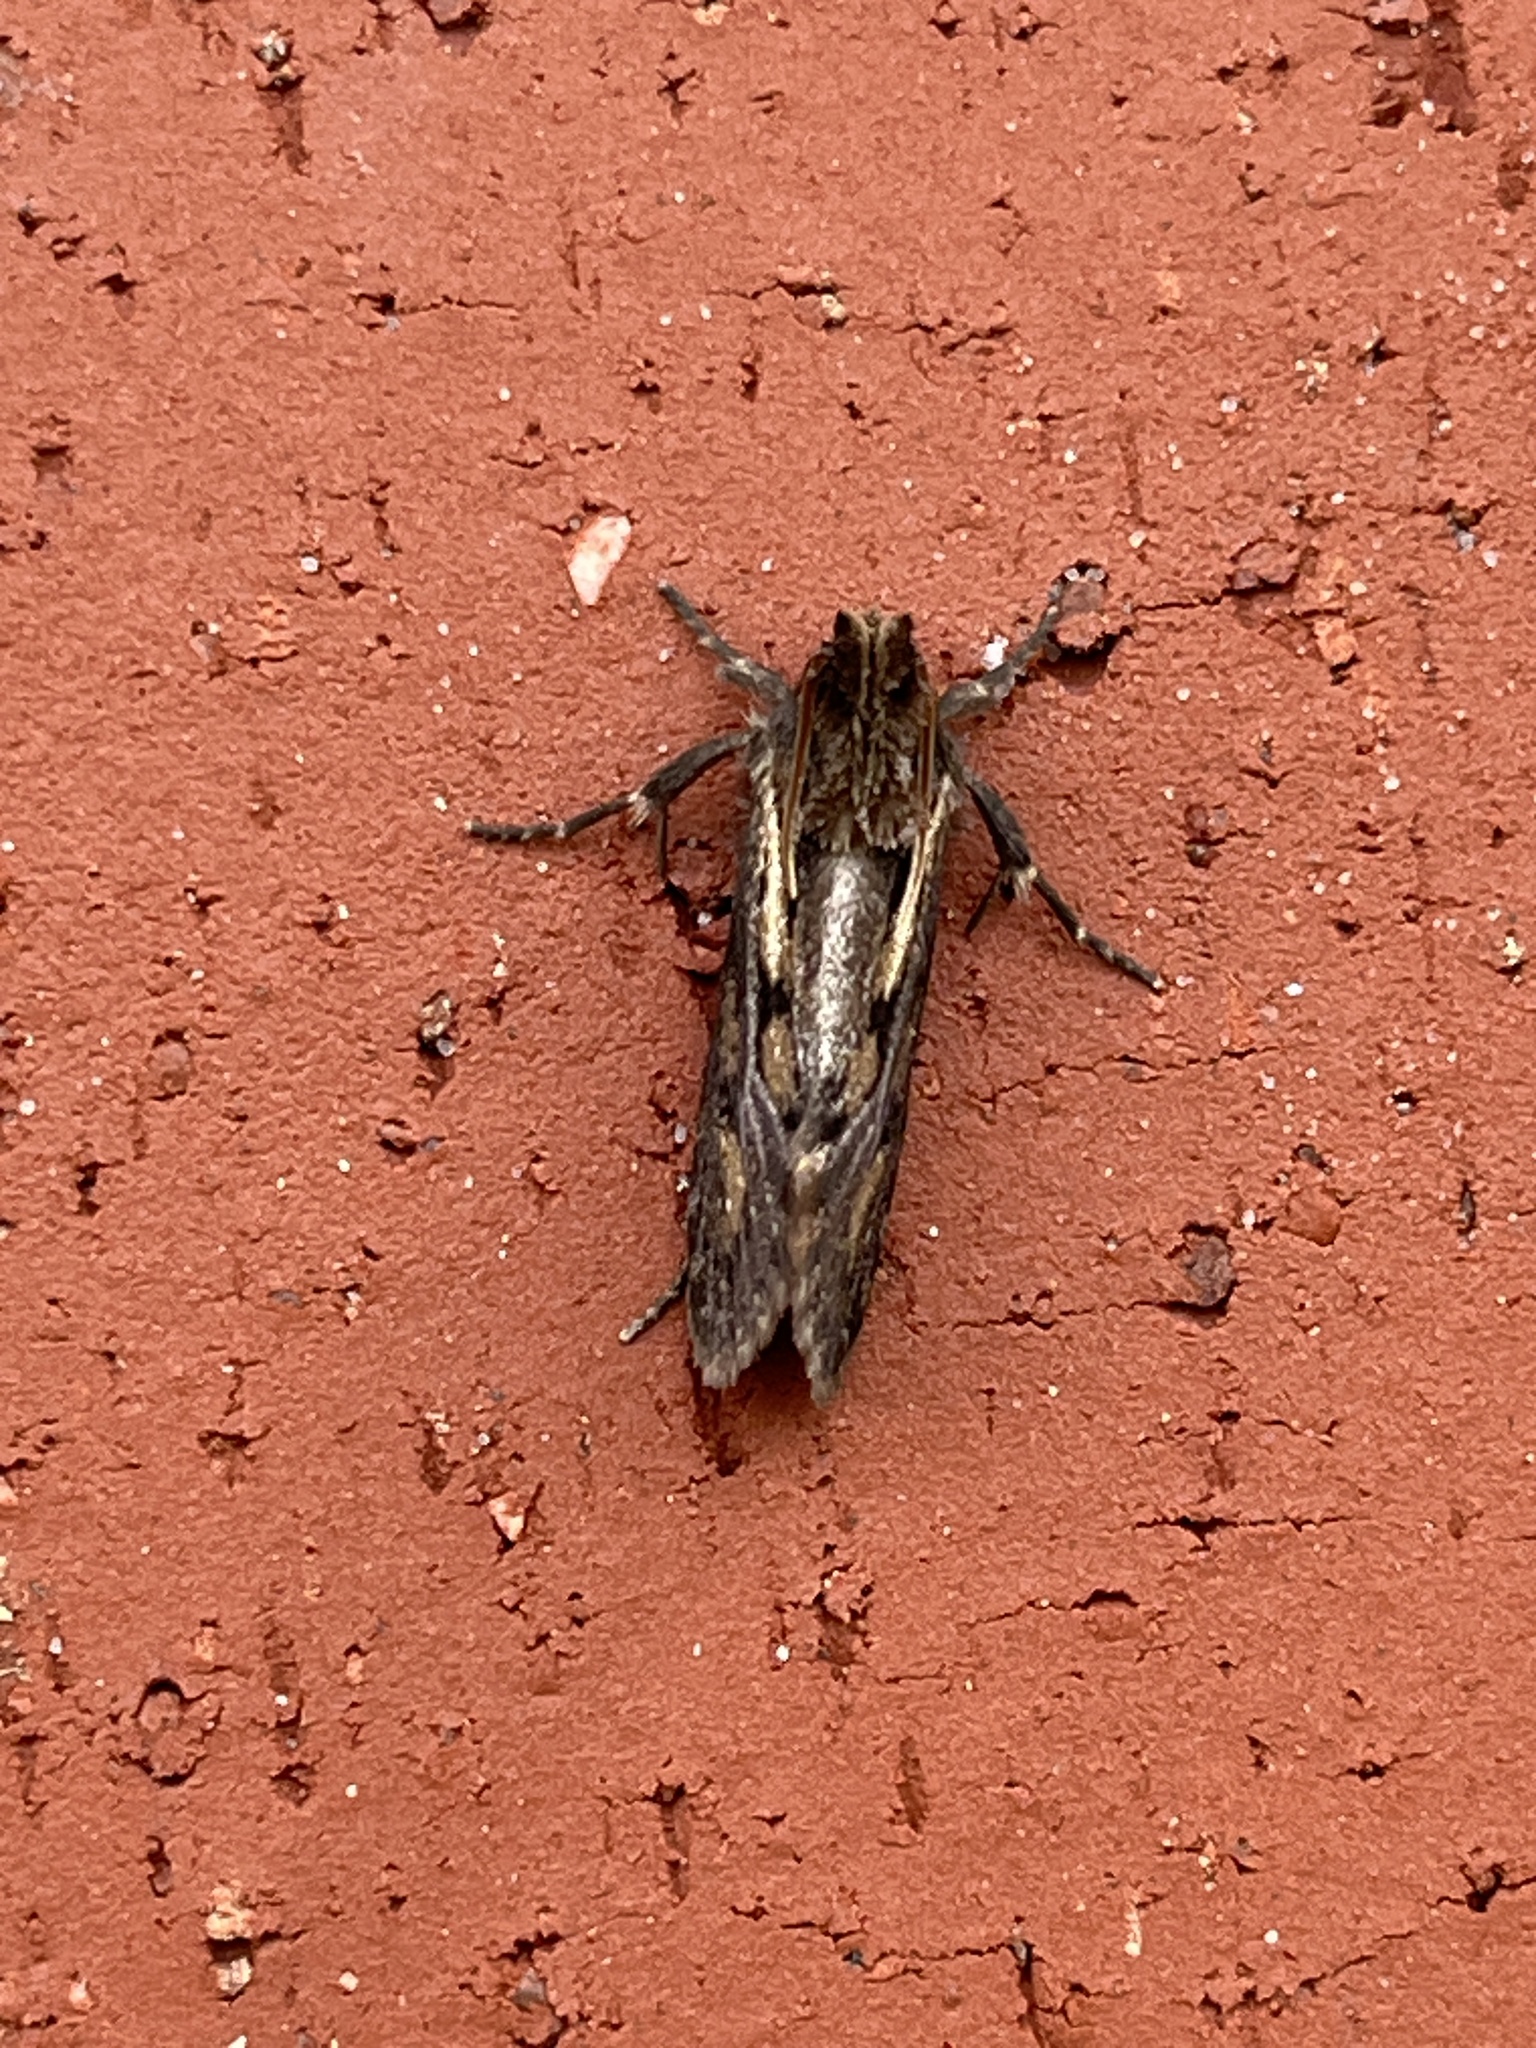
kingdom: Animalia
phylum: Arthropoda
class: Insecta
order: Lepidoptera
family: Tineidae
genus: Acrolophus
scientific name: Acrolophus popeanella
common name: Clemens' grass tubeworm moth
